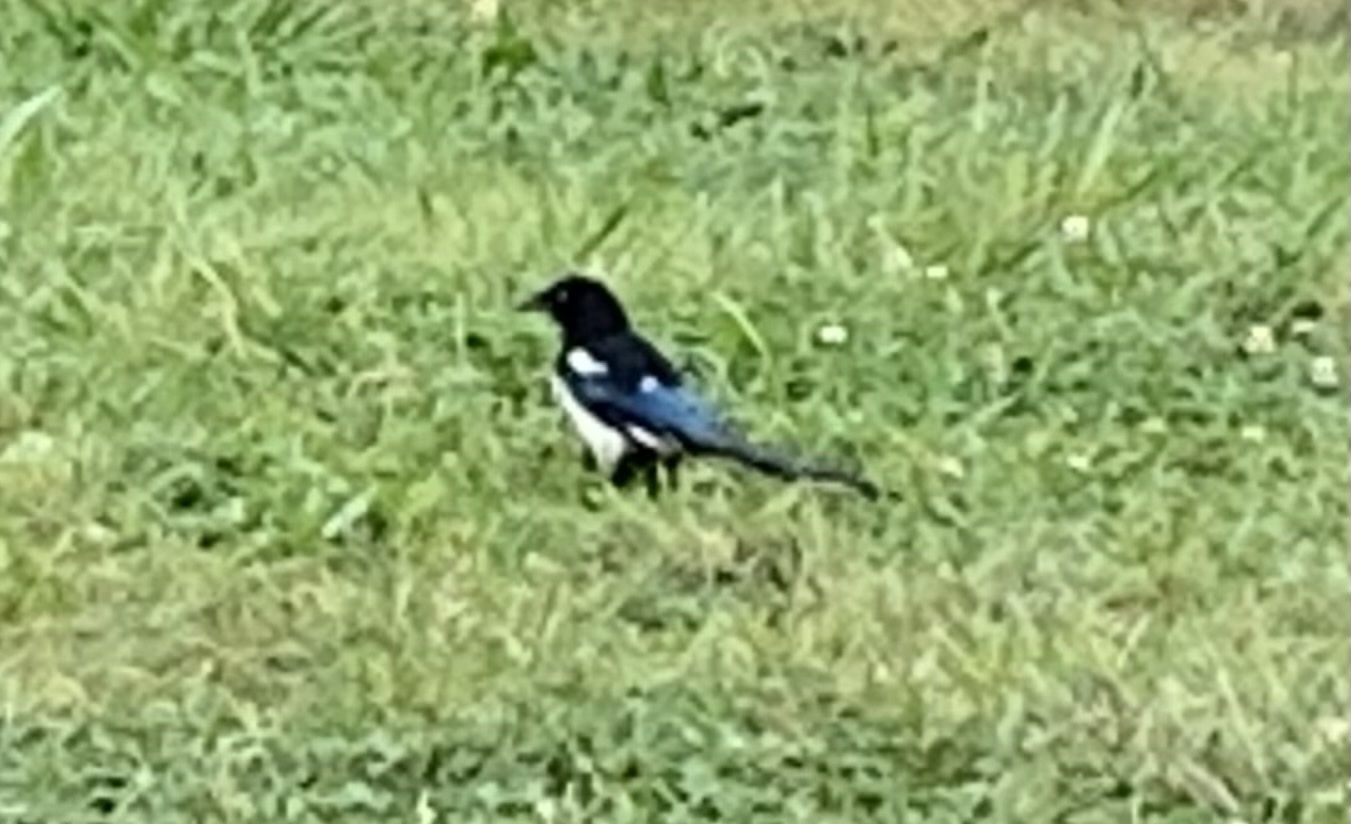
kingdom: Animalia
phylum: Chordata
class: Aves
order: Passeriformes
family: Corvidae
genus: Pica
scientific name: Pica pica
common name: Eurasian magpie
